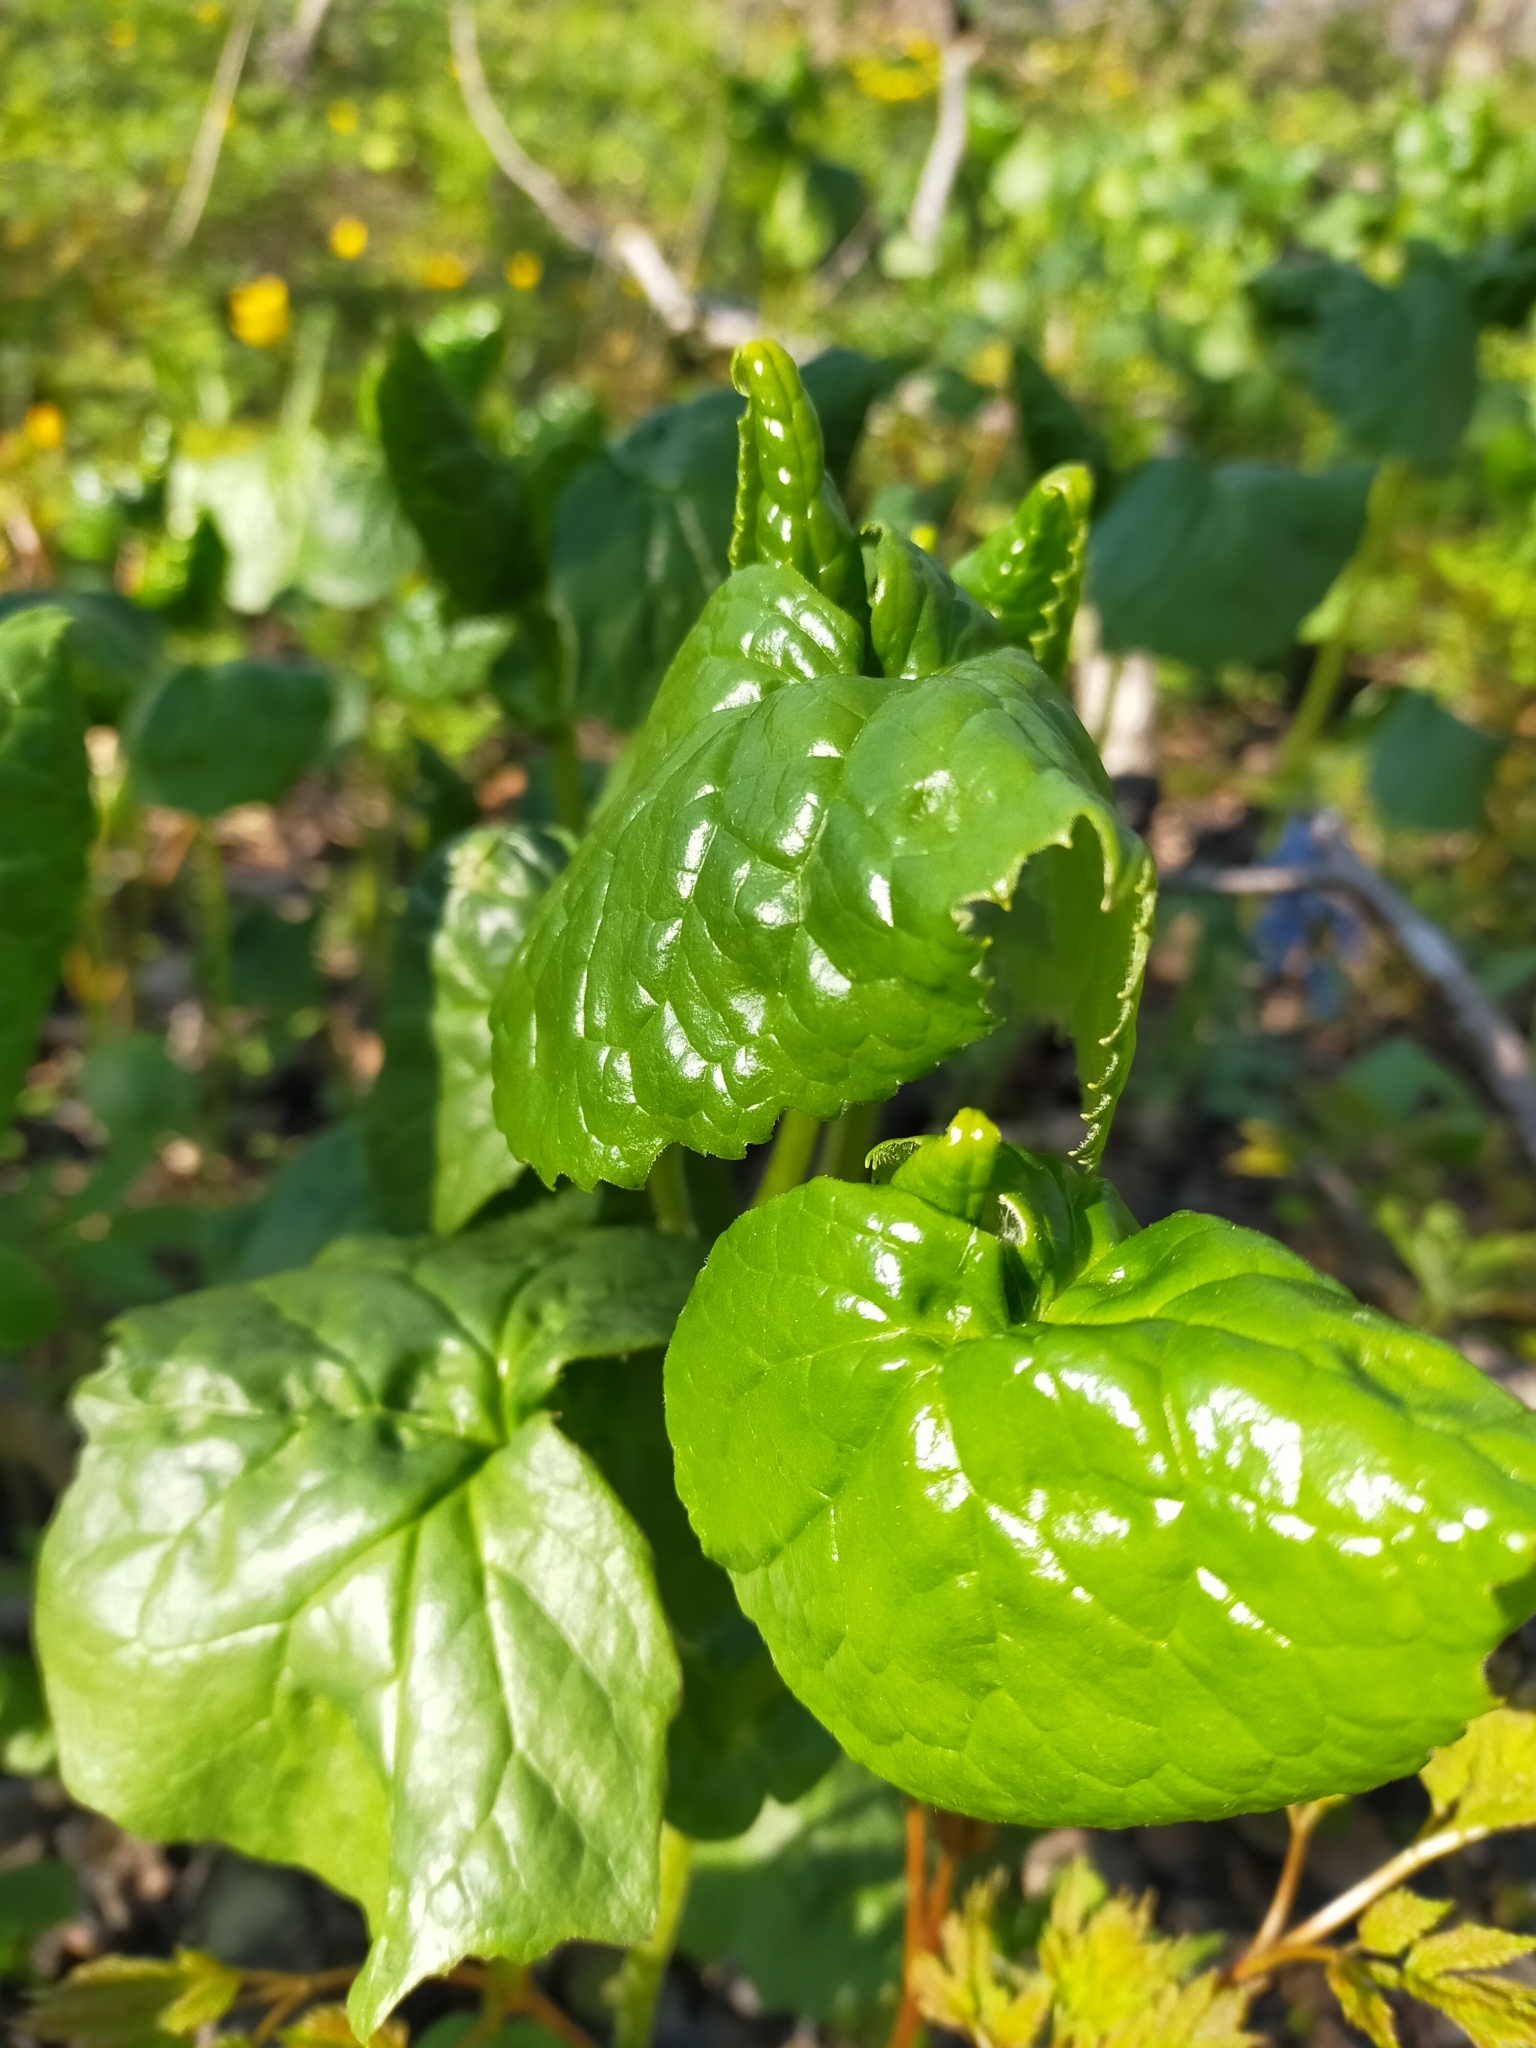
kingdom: Plantae
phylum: Tracheophyta
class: Magnoliopsida
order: Asterales
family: Asteraceae
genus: Parasenecio
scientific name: Parasenecio praetermissus
